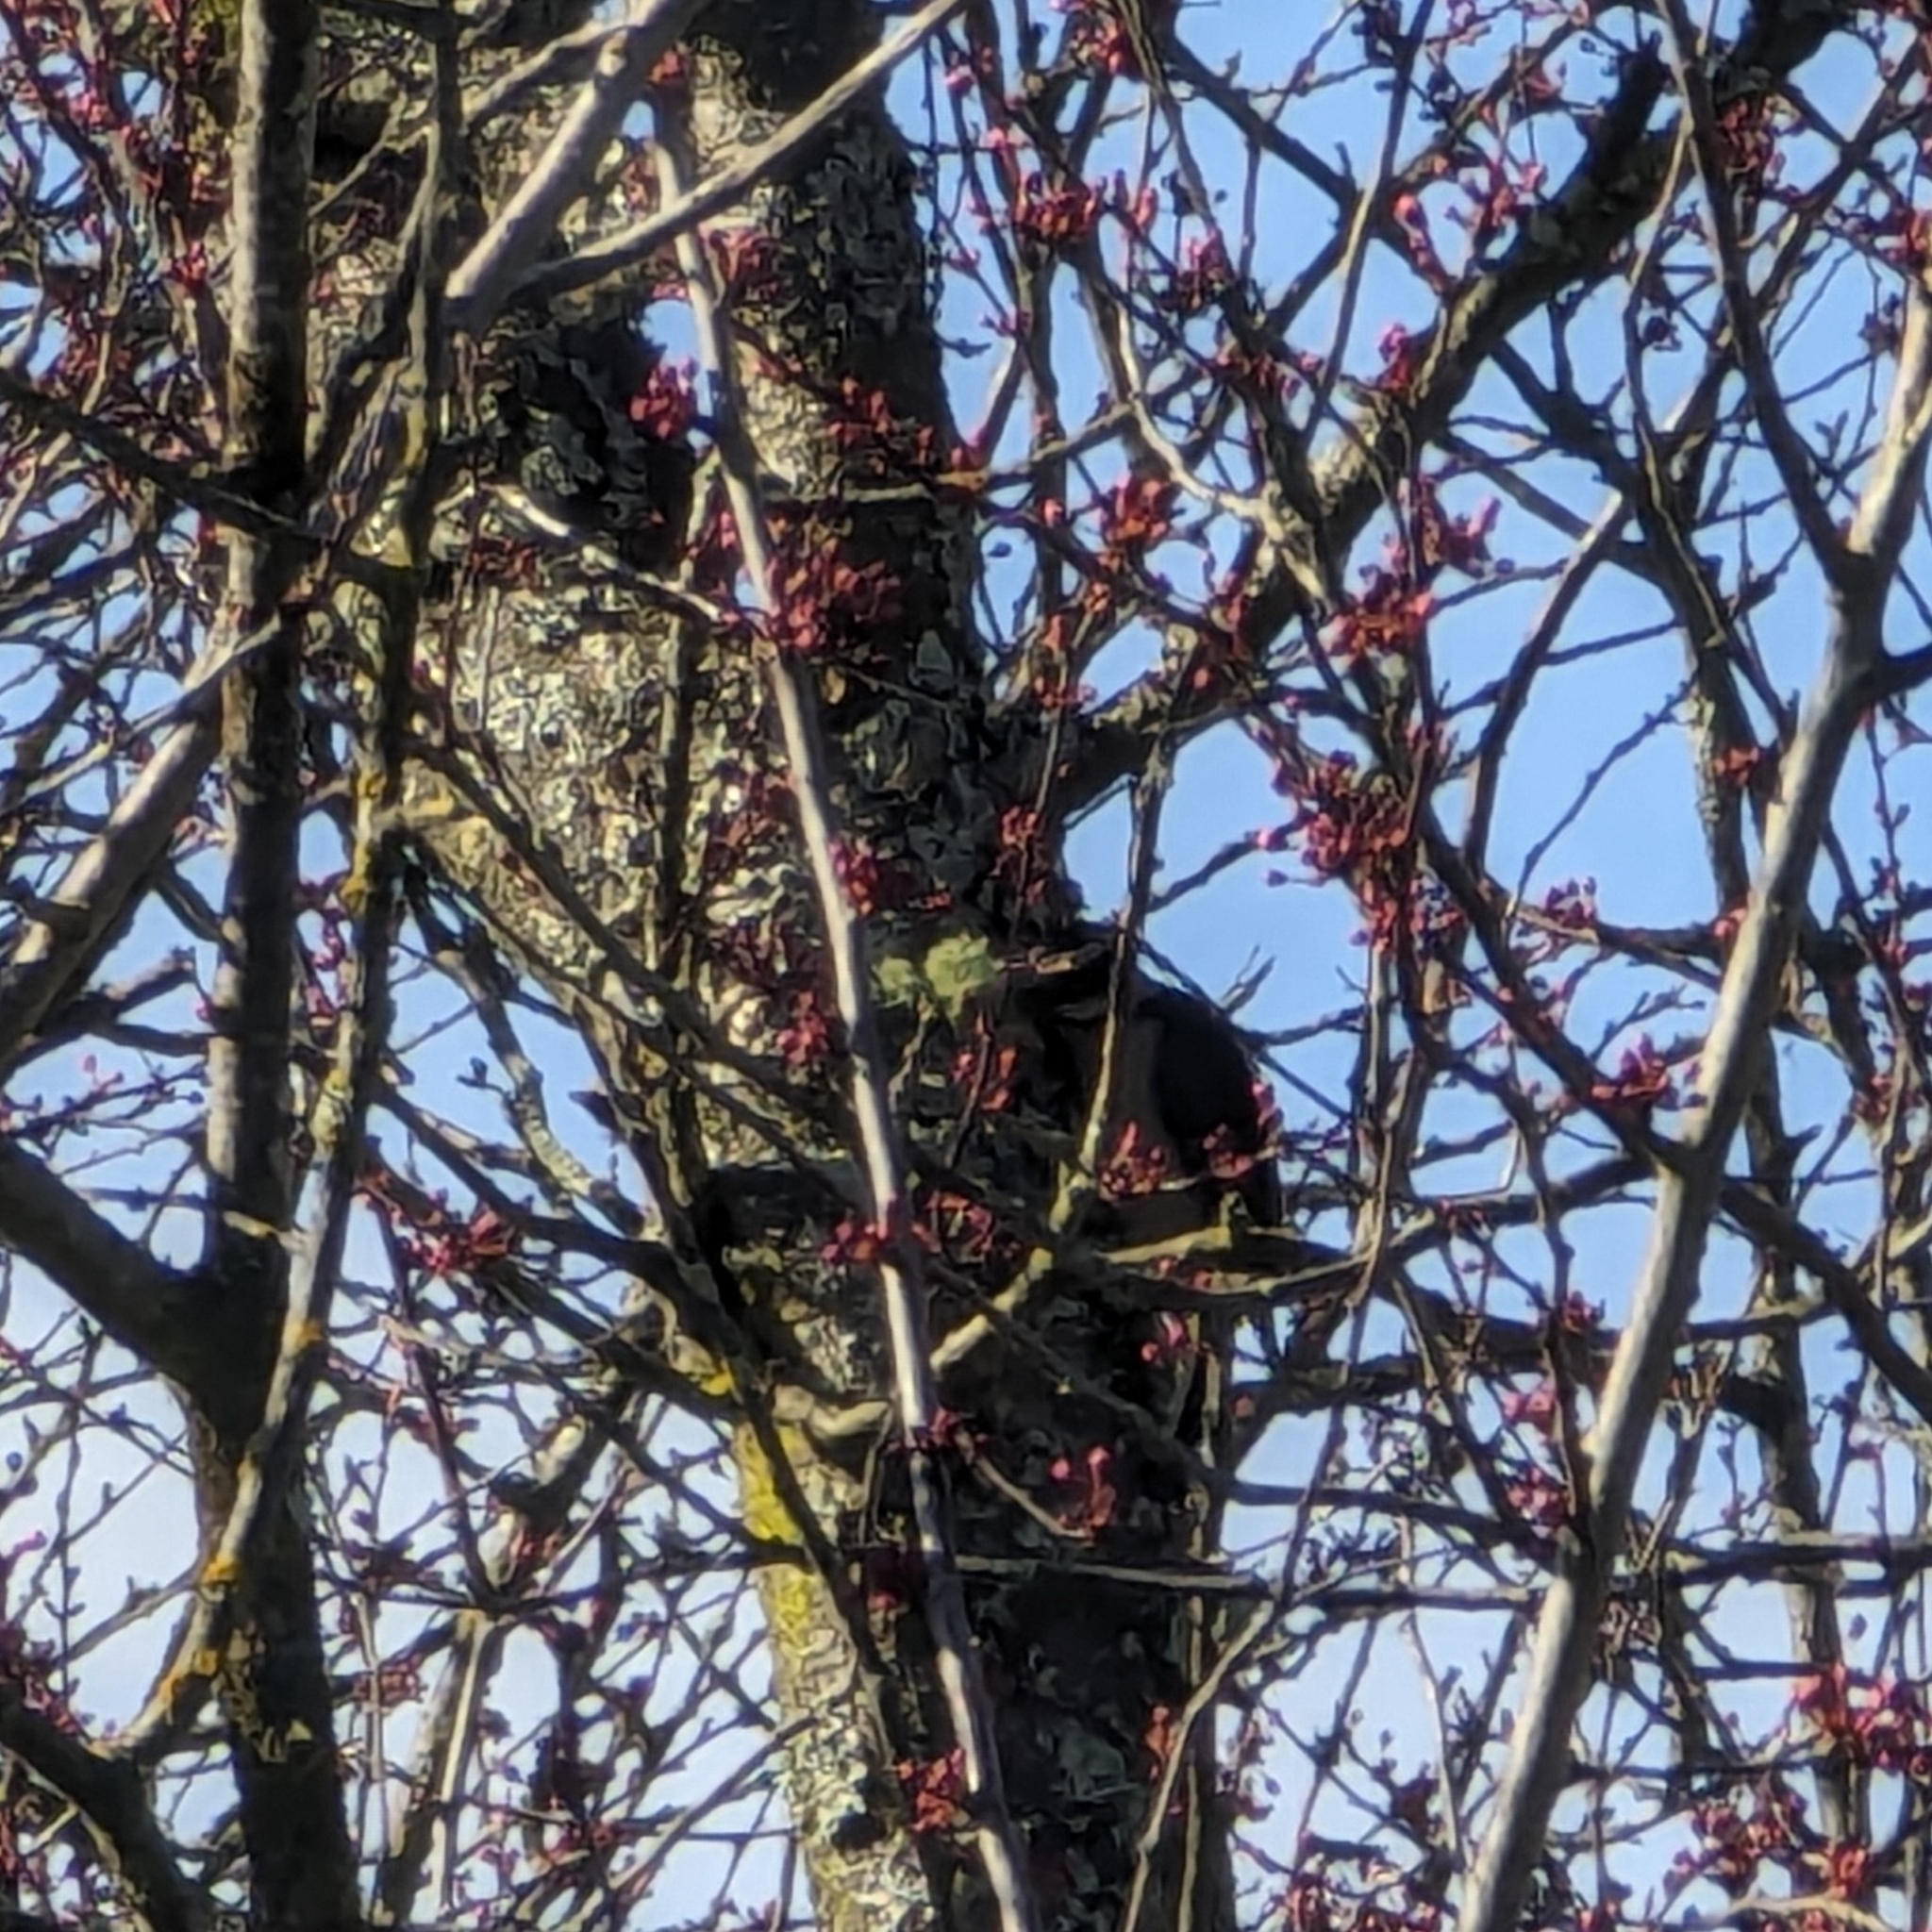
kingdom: Animalia
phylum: Chordata
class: Aves
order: Piciformes
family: Picidae
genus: Dryobates
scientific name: Dryobates pubescens
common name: Downy woodpecker
